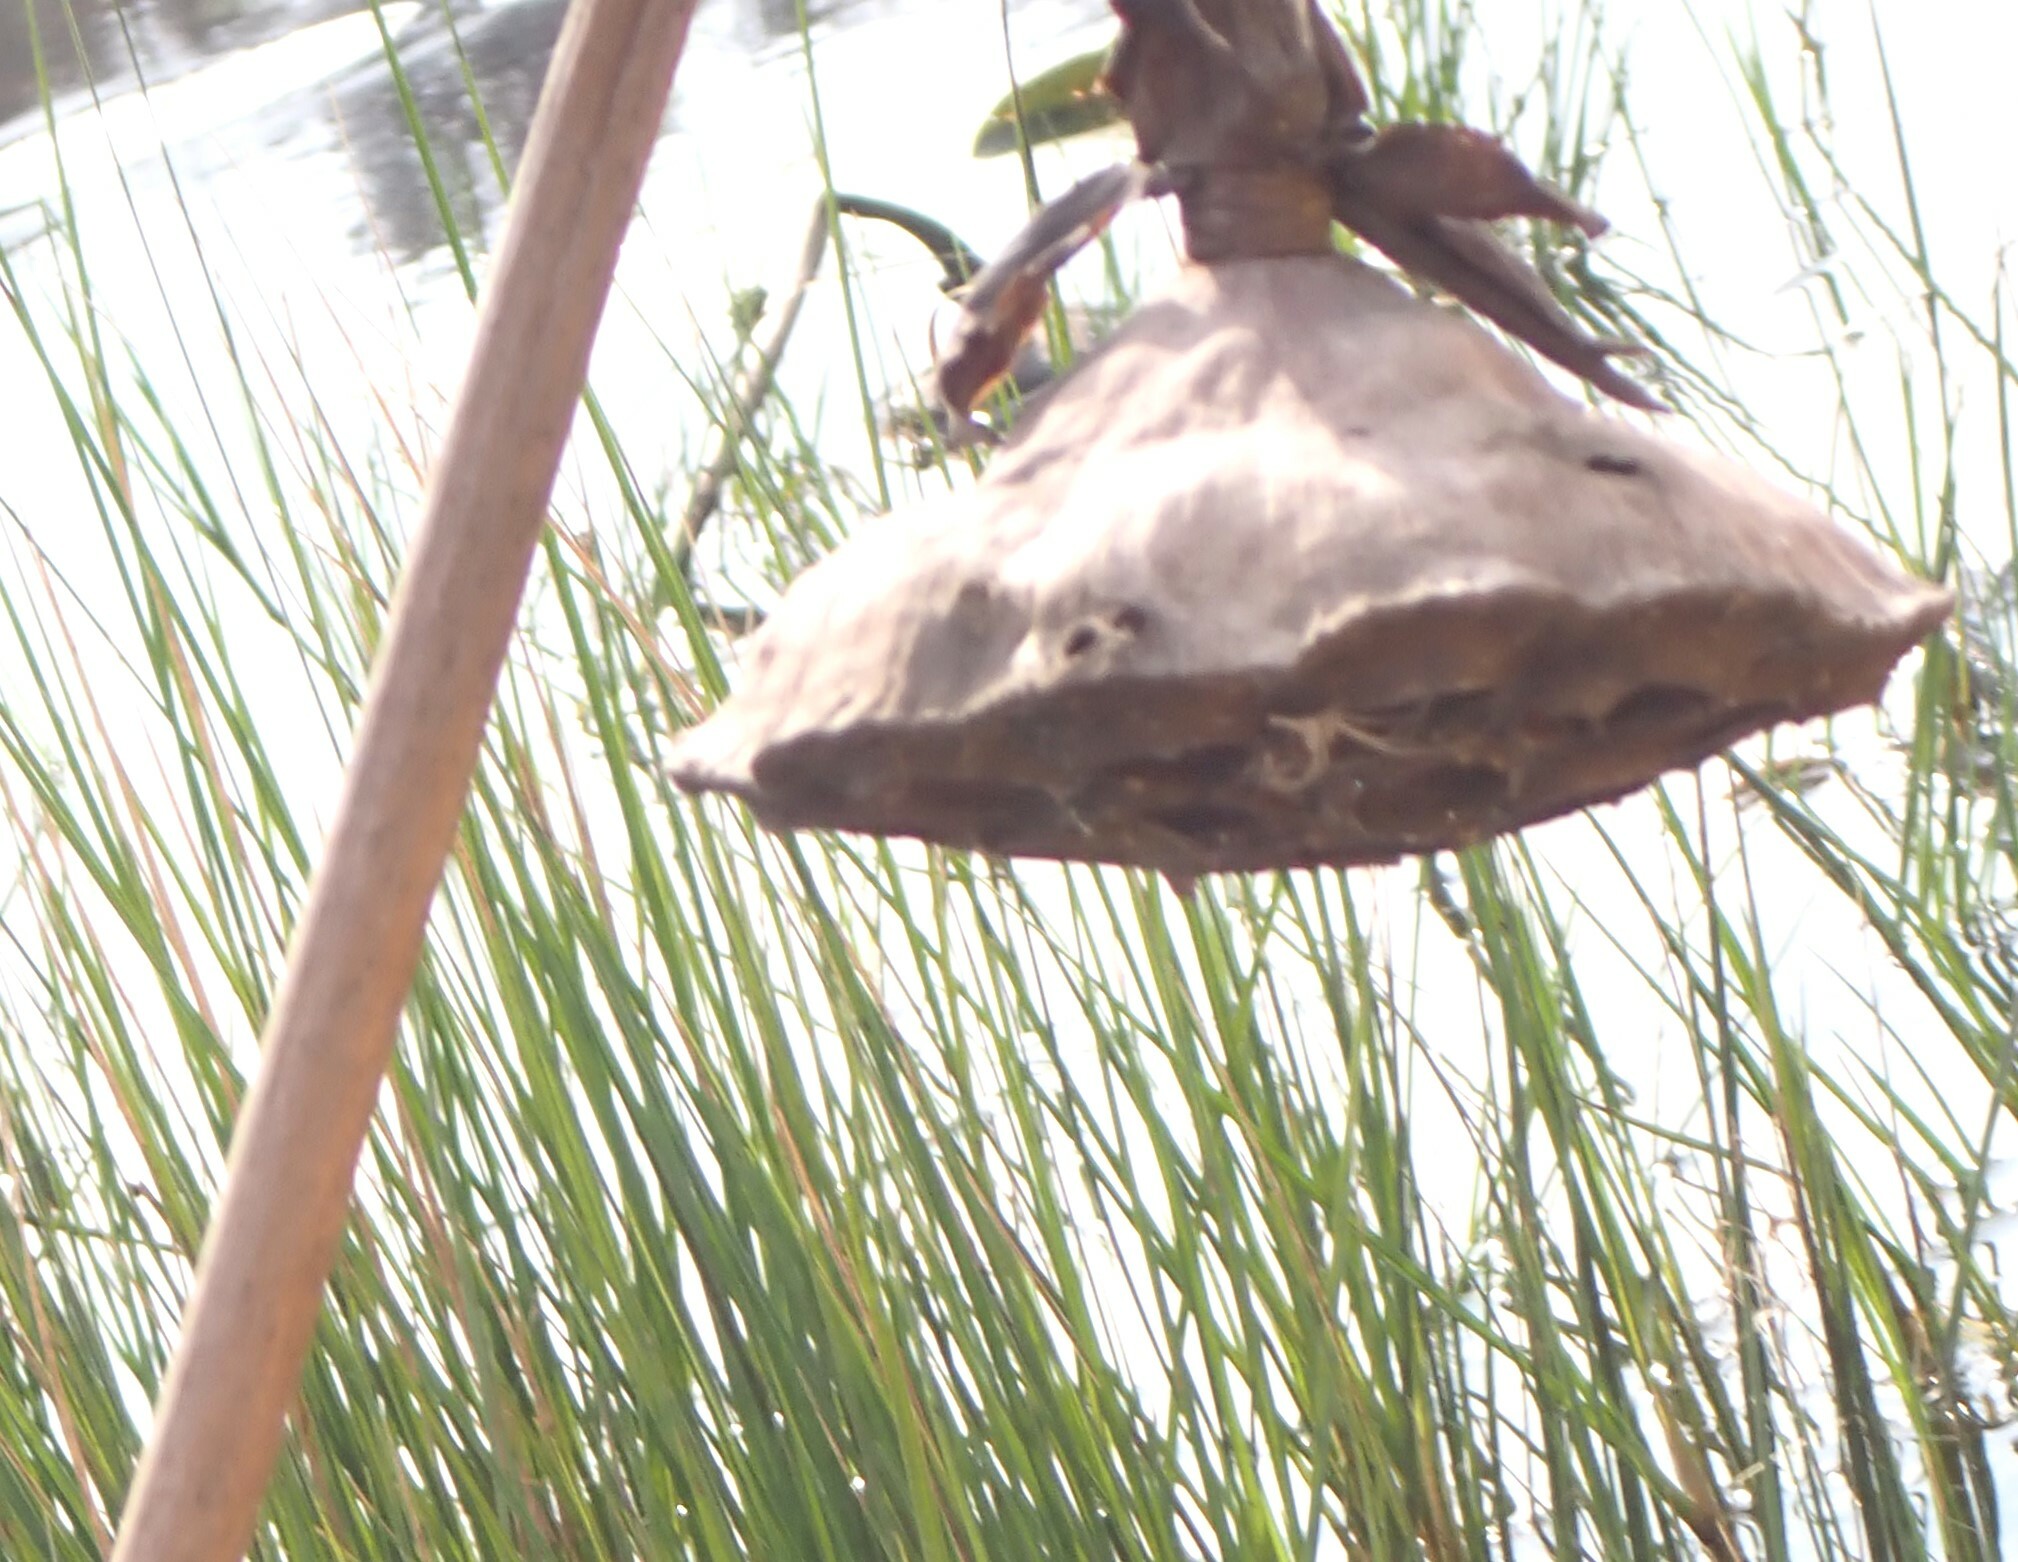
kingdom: Plantae
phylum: Tracheophyta
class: Magnoliopsida
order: Proteales
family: Nelumbonaceae
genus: Nelumbo
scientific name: Nelumbo lutea
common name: American lotus
